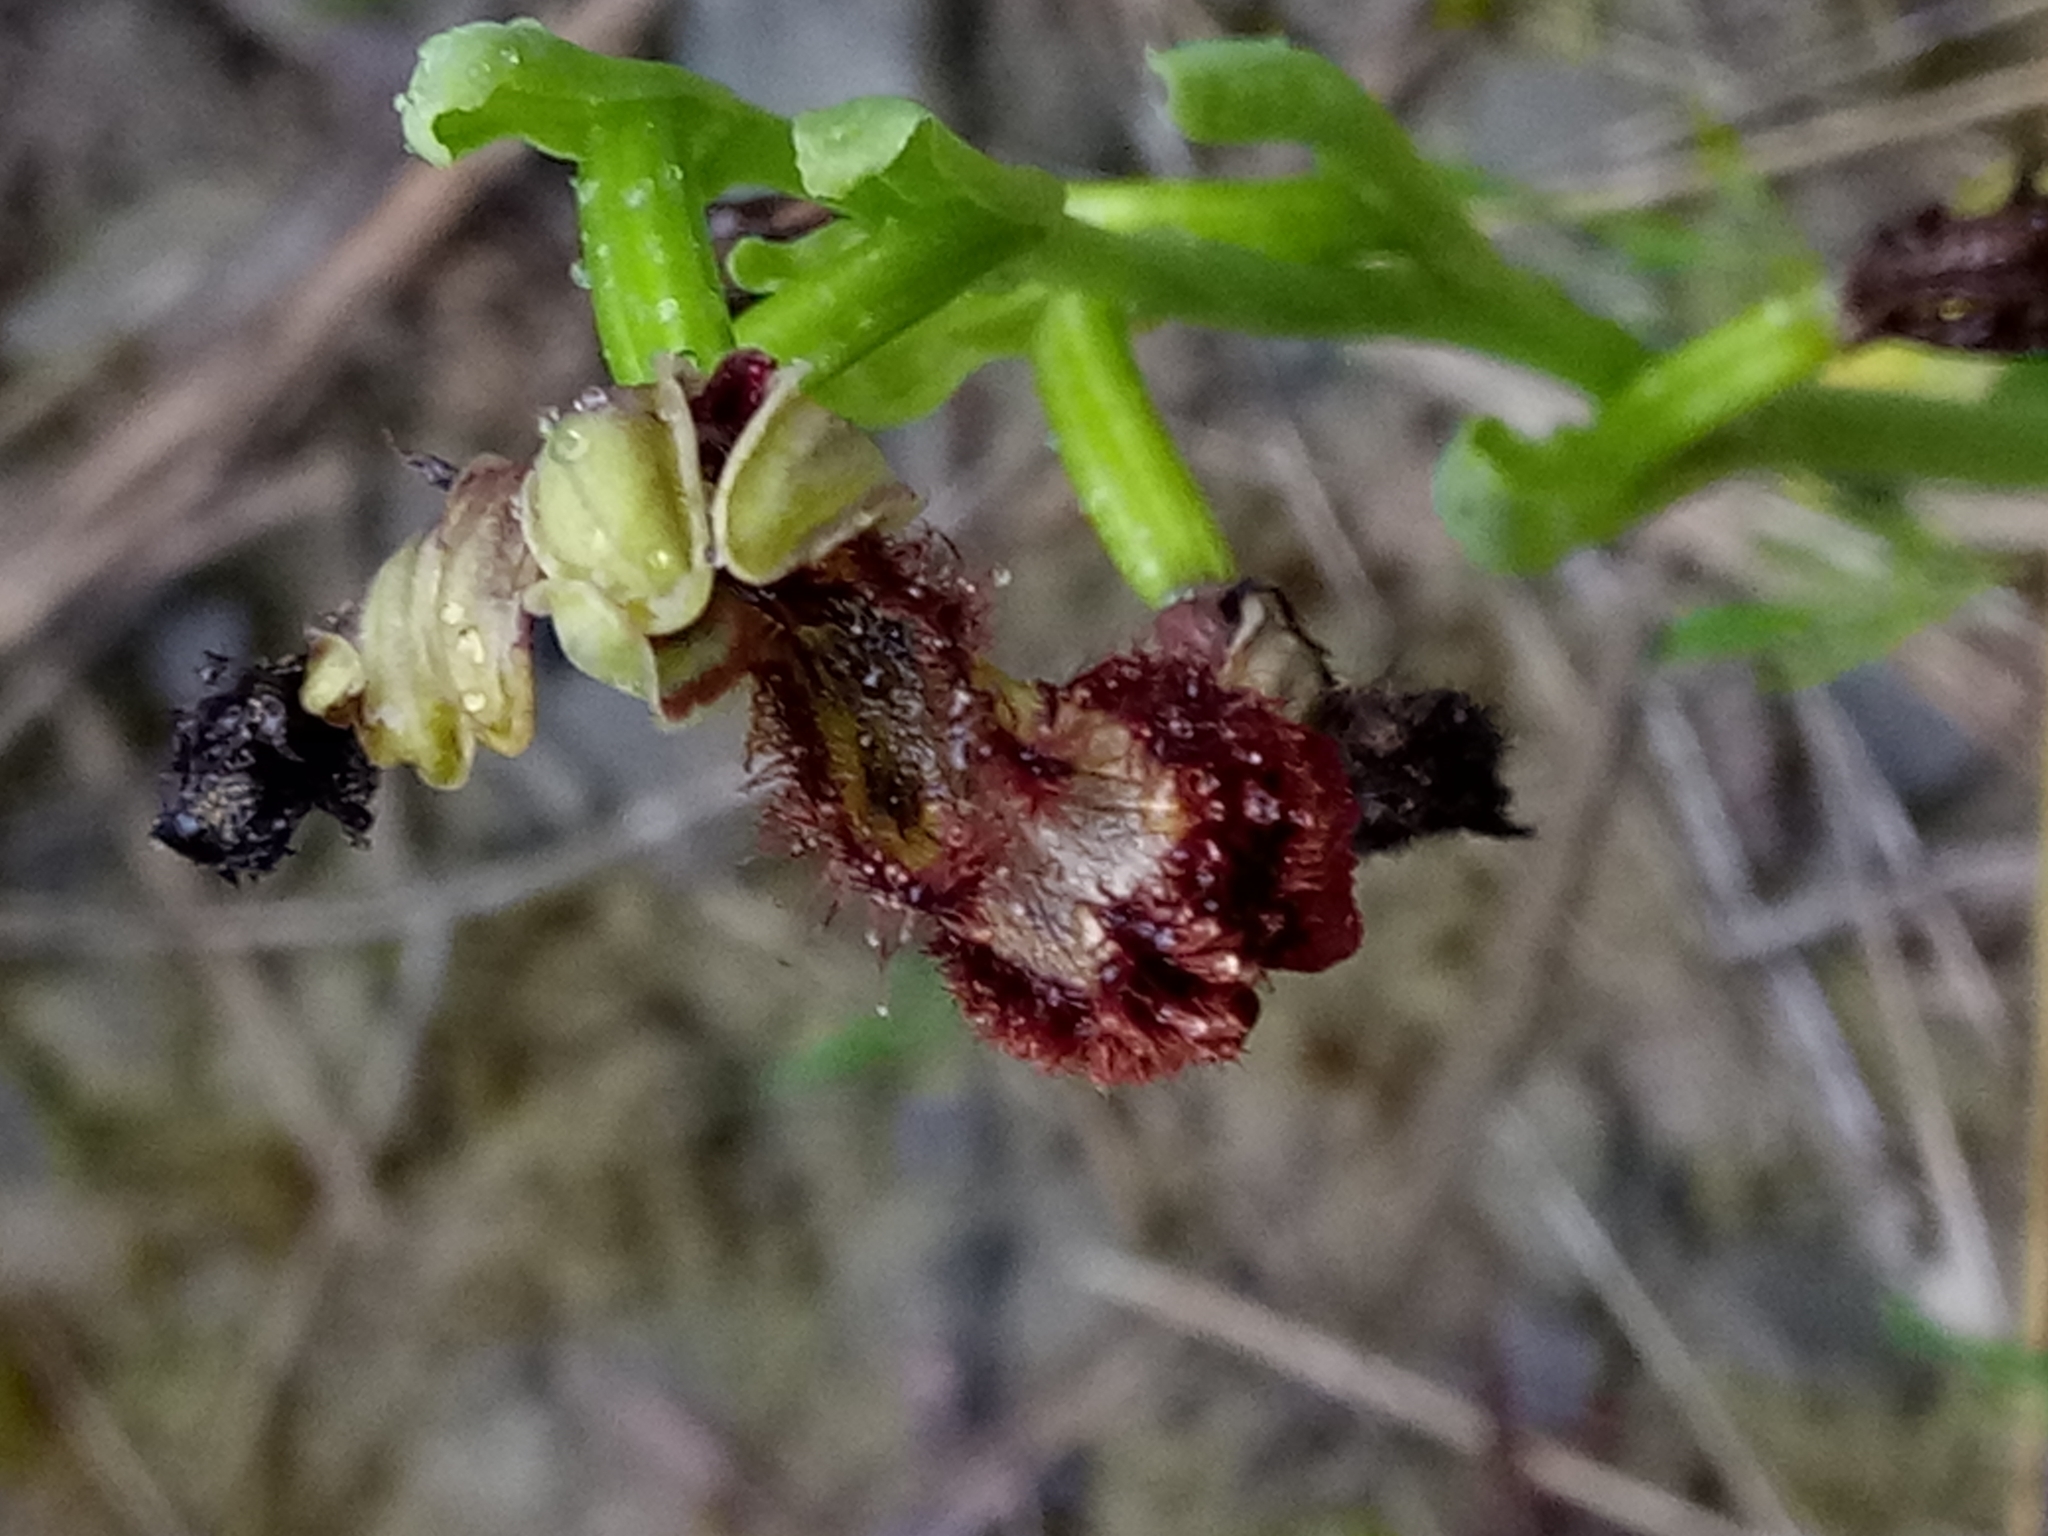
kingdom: Plantae
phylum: Tracheophyta
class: Liliopsida
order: Asparagales
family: Orchidaceae
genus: Ophrys
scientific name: Ophrys speculum
